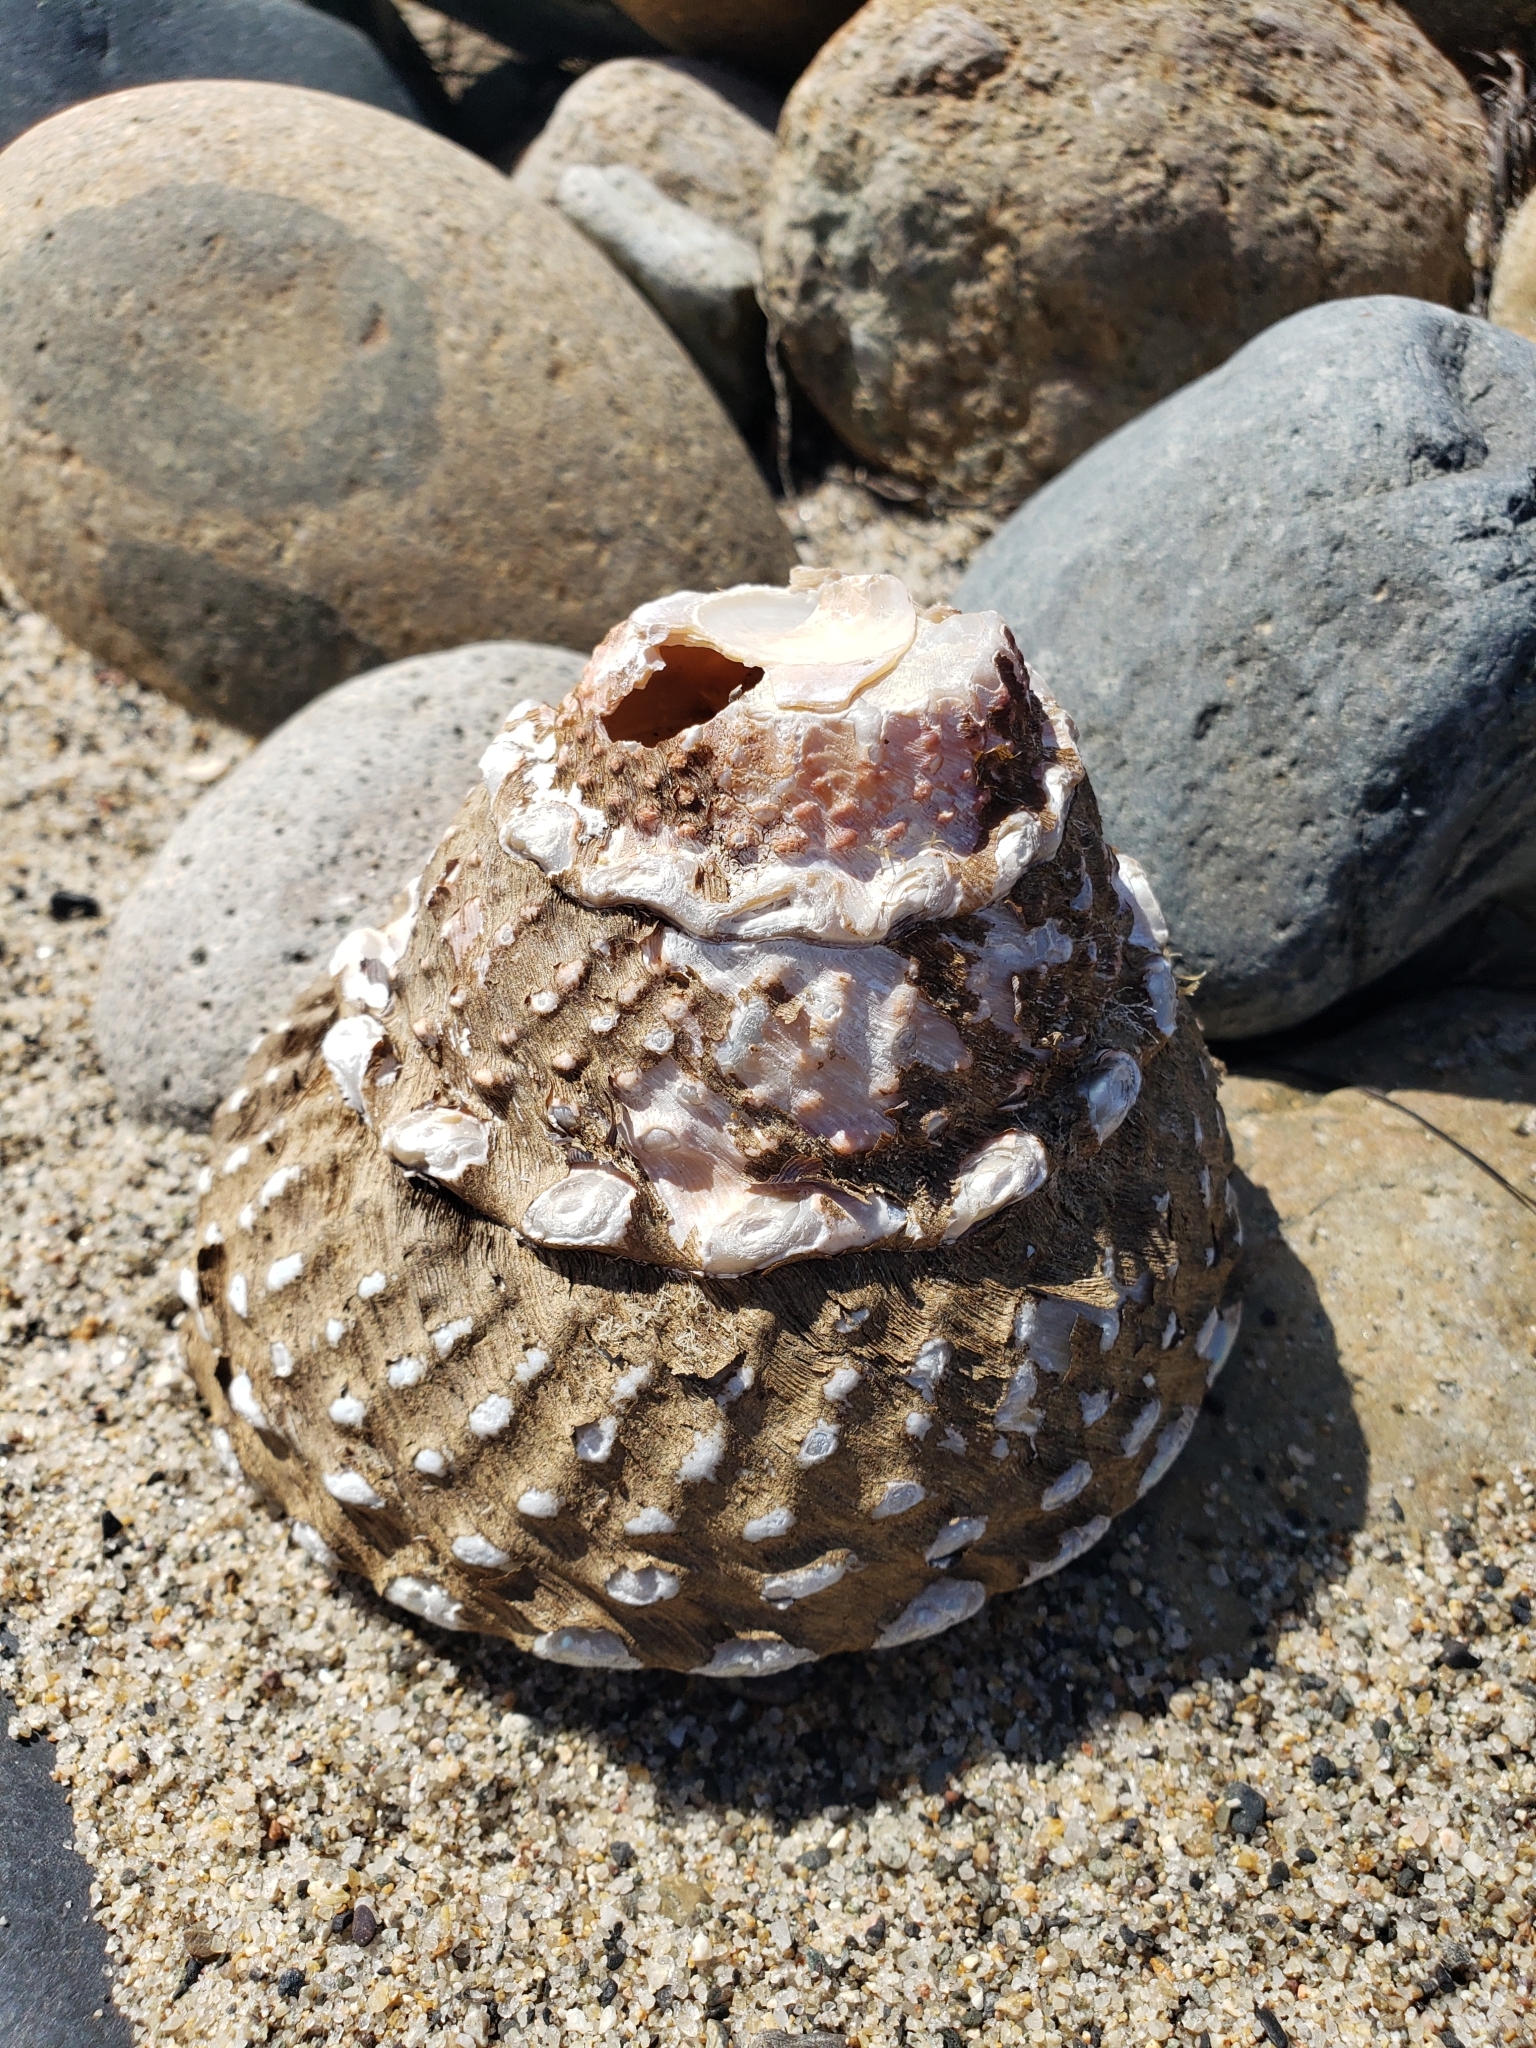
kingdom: Animalia
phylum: Mollusca
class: Gastropoda
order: Trochida
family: Turbinidae
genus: Megastraea
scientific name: Megastraea undosa
